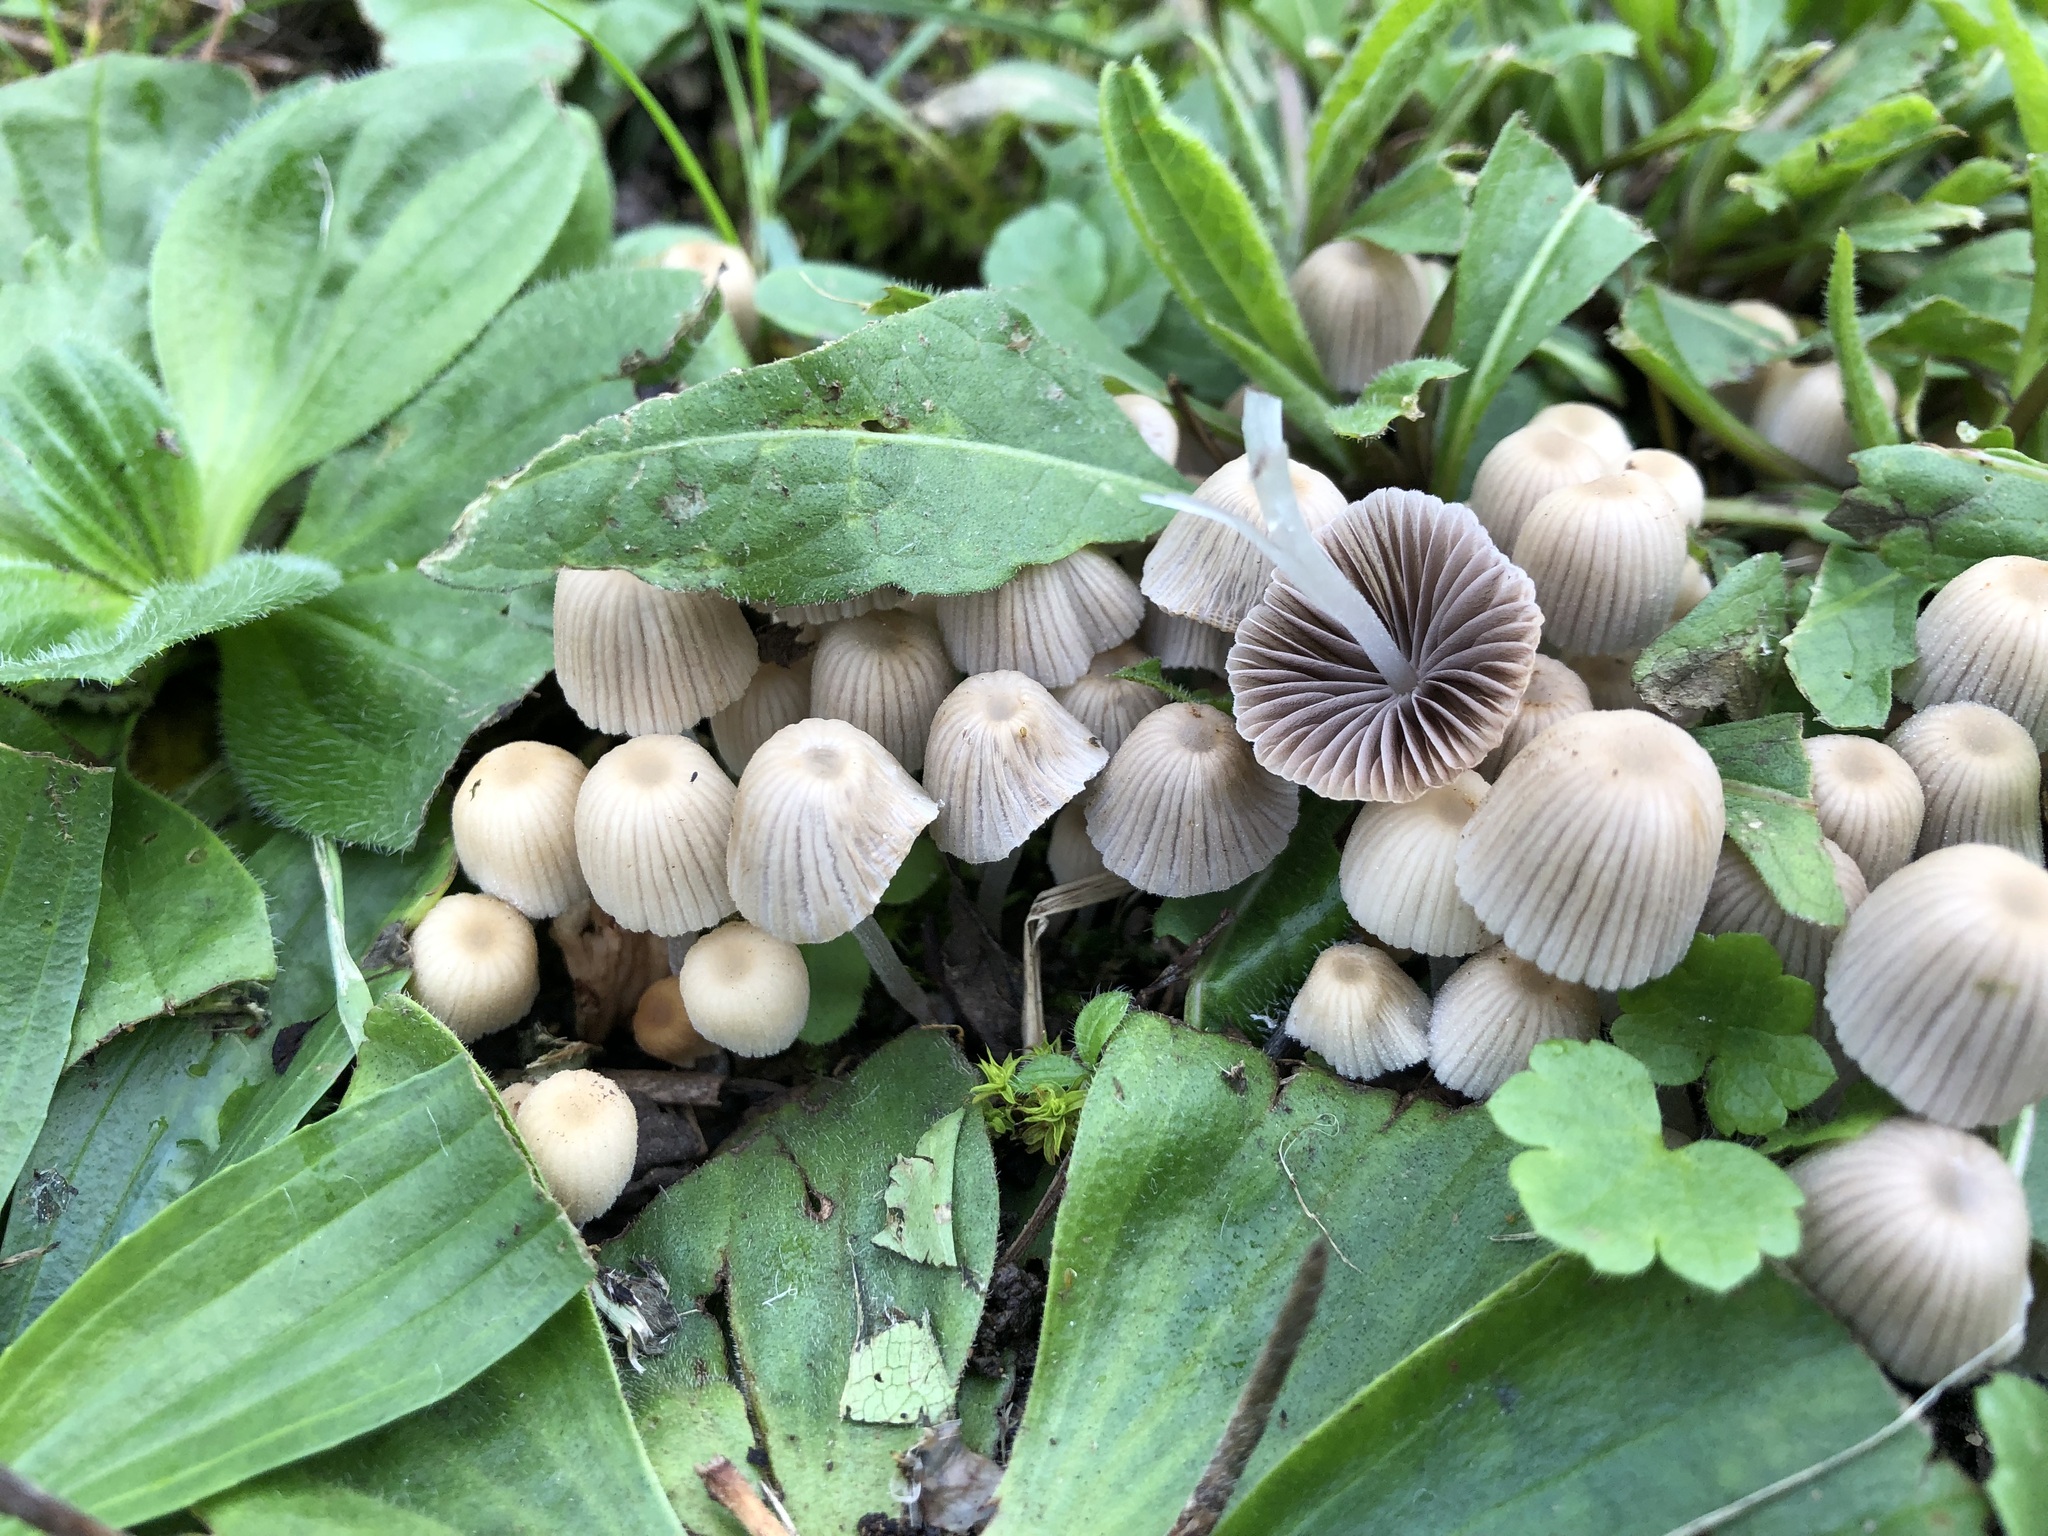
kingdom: Fungi
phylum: Basidiomycota
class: Agaricomycetes
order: Agaricales
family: Psathyrellaceae
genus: Coprinellus
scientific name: Coprinellus disseminatus
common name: Fairies' bonnets
